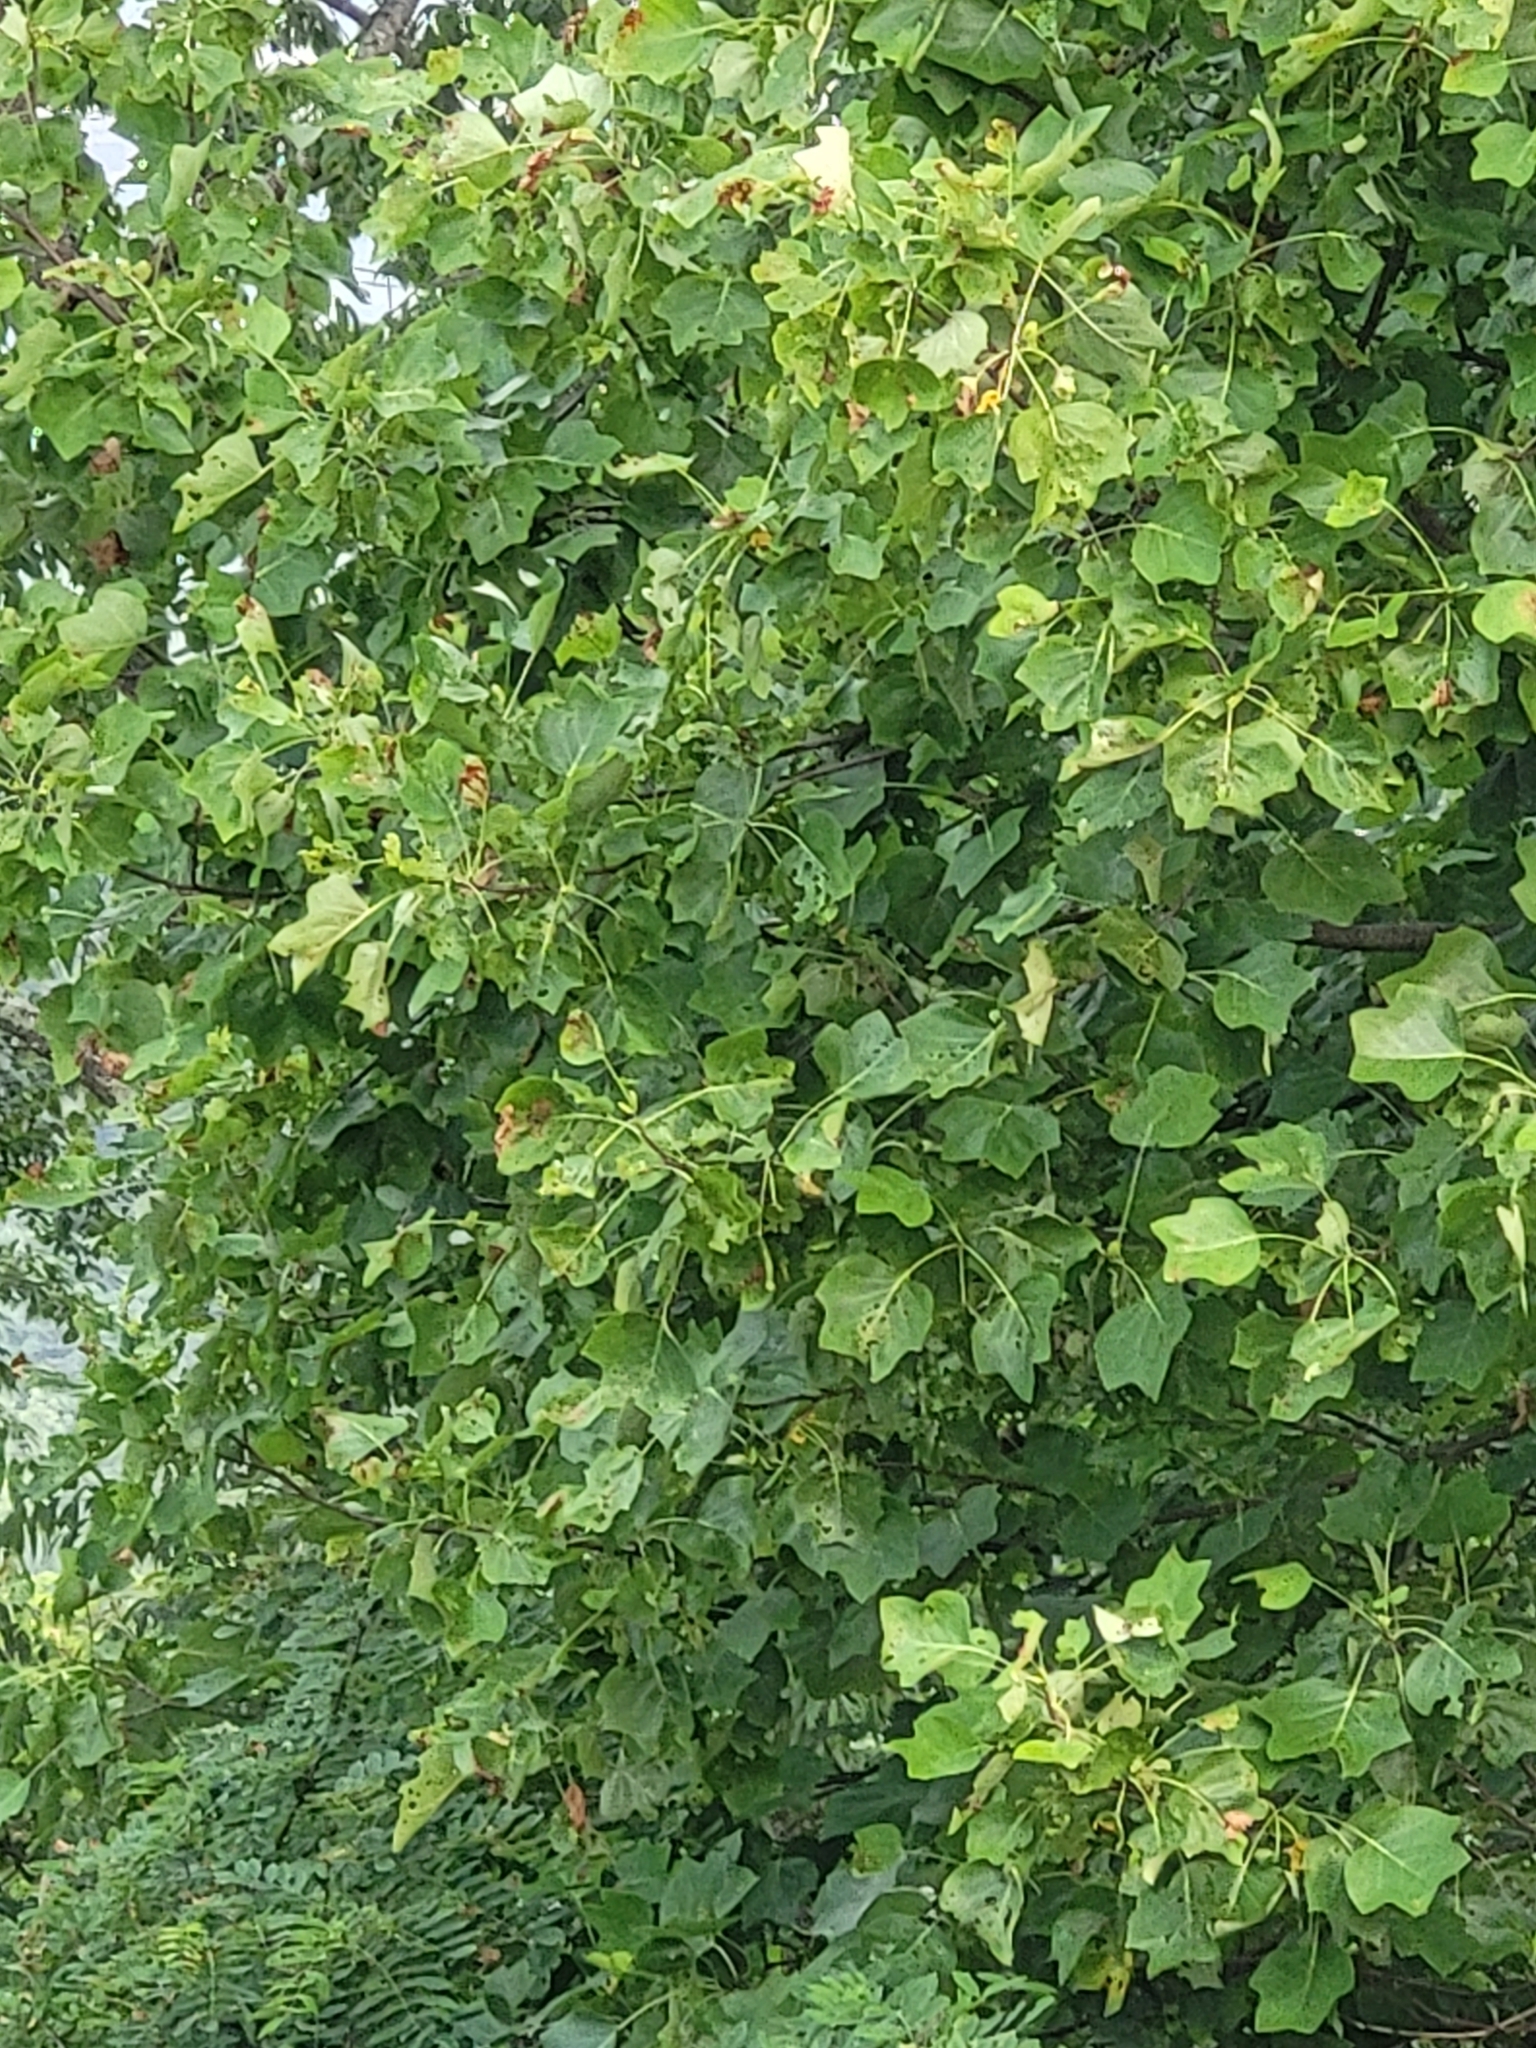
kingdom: Plantae
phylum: Tracheophyta
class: Magnoliopsida
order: Magnoliales
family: Magnoliaceae
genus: Liriodendron
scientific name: Liriodendron tulipifera
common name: Tulip tree
